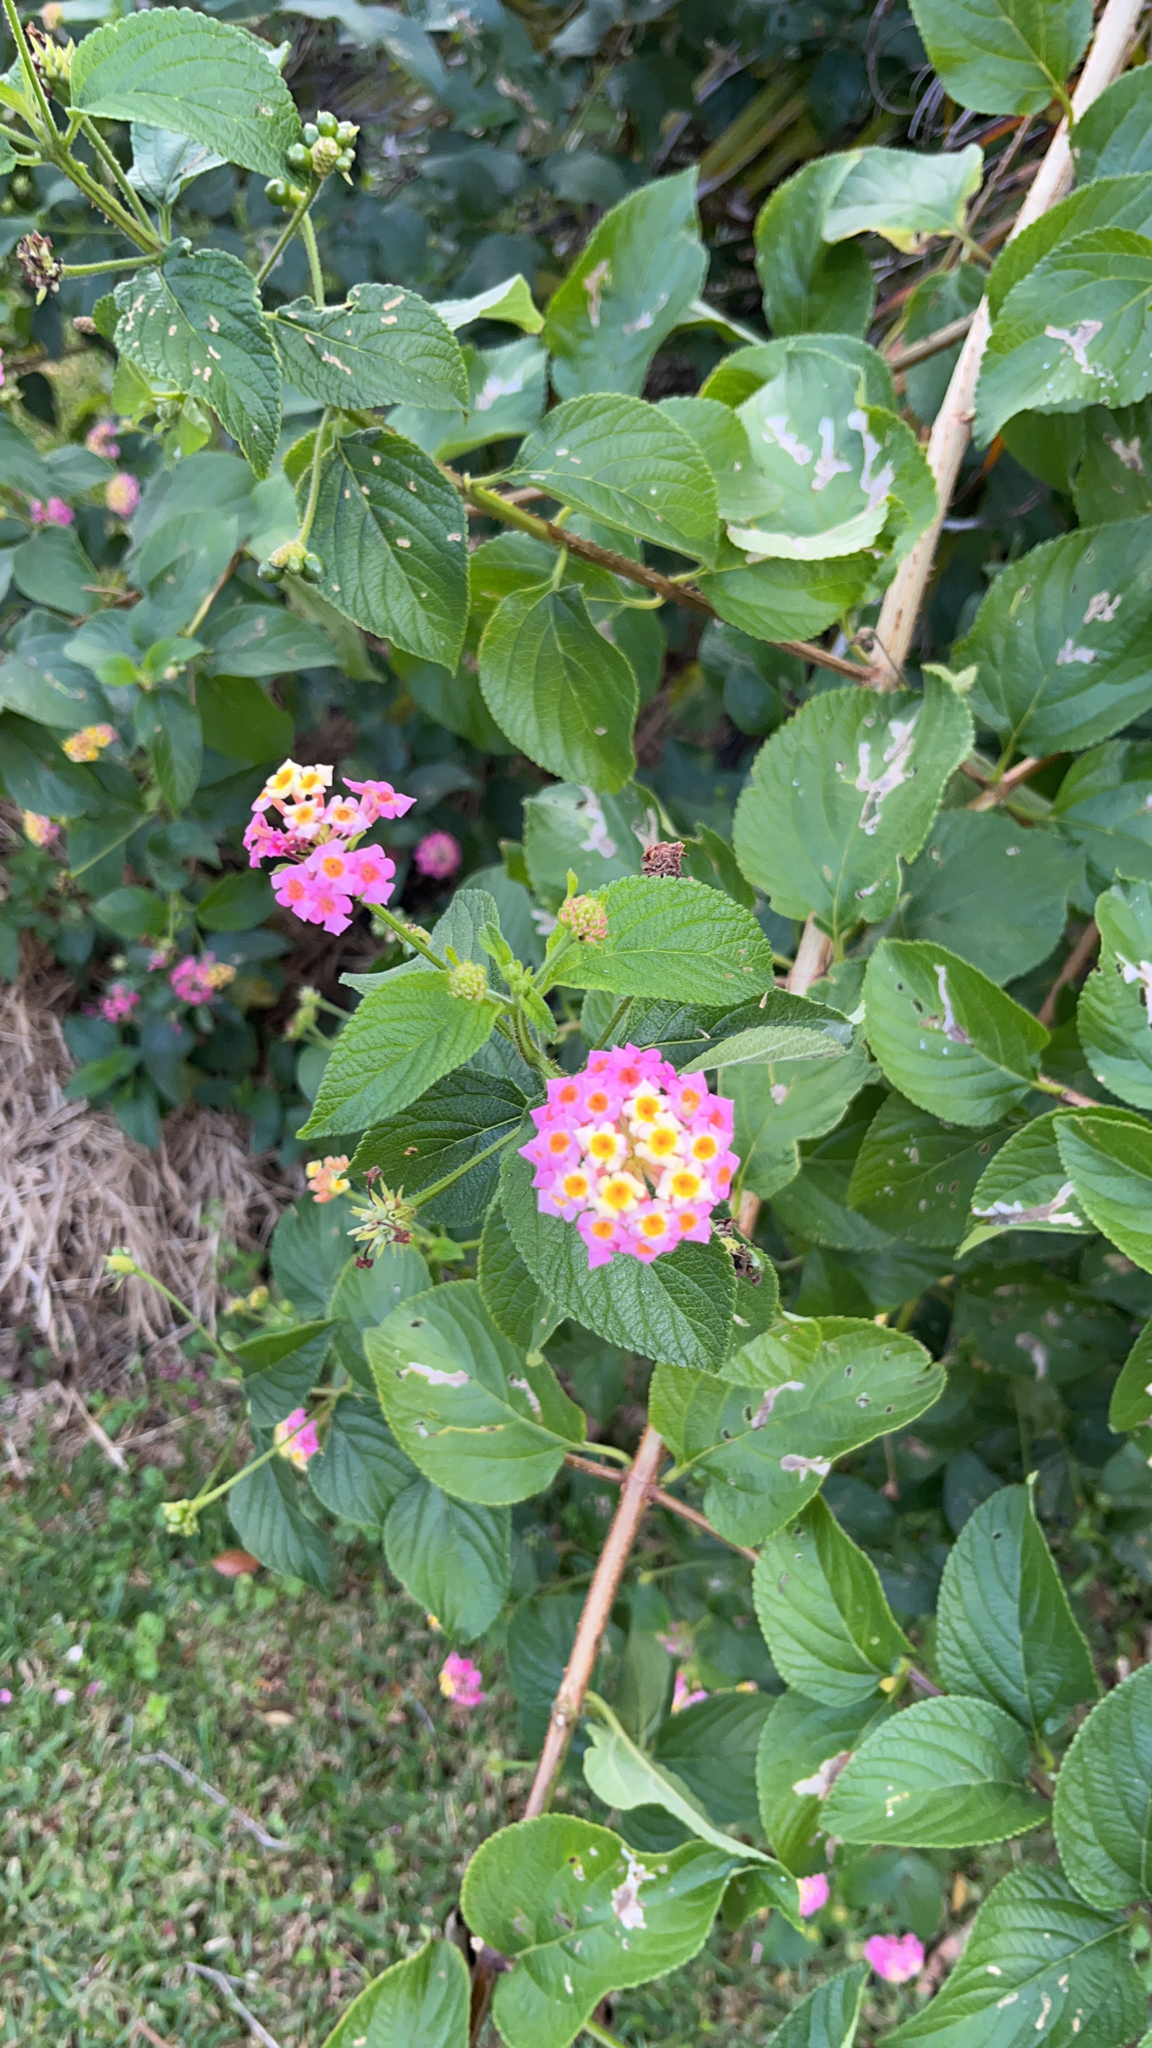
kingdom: Plantae
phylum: Tracheophyta
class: Magnoliopsida
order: Lamiales
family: Verbenaceae
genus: Lantana
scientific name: Lantana camara
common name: Lantana
